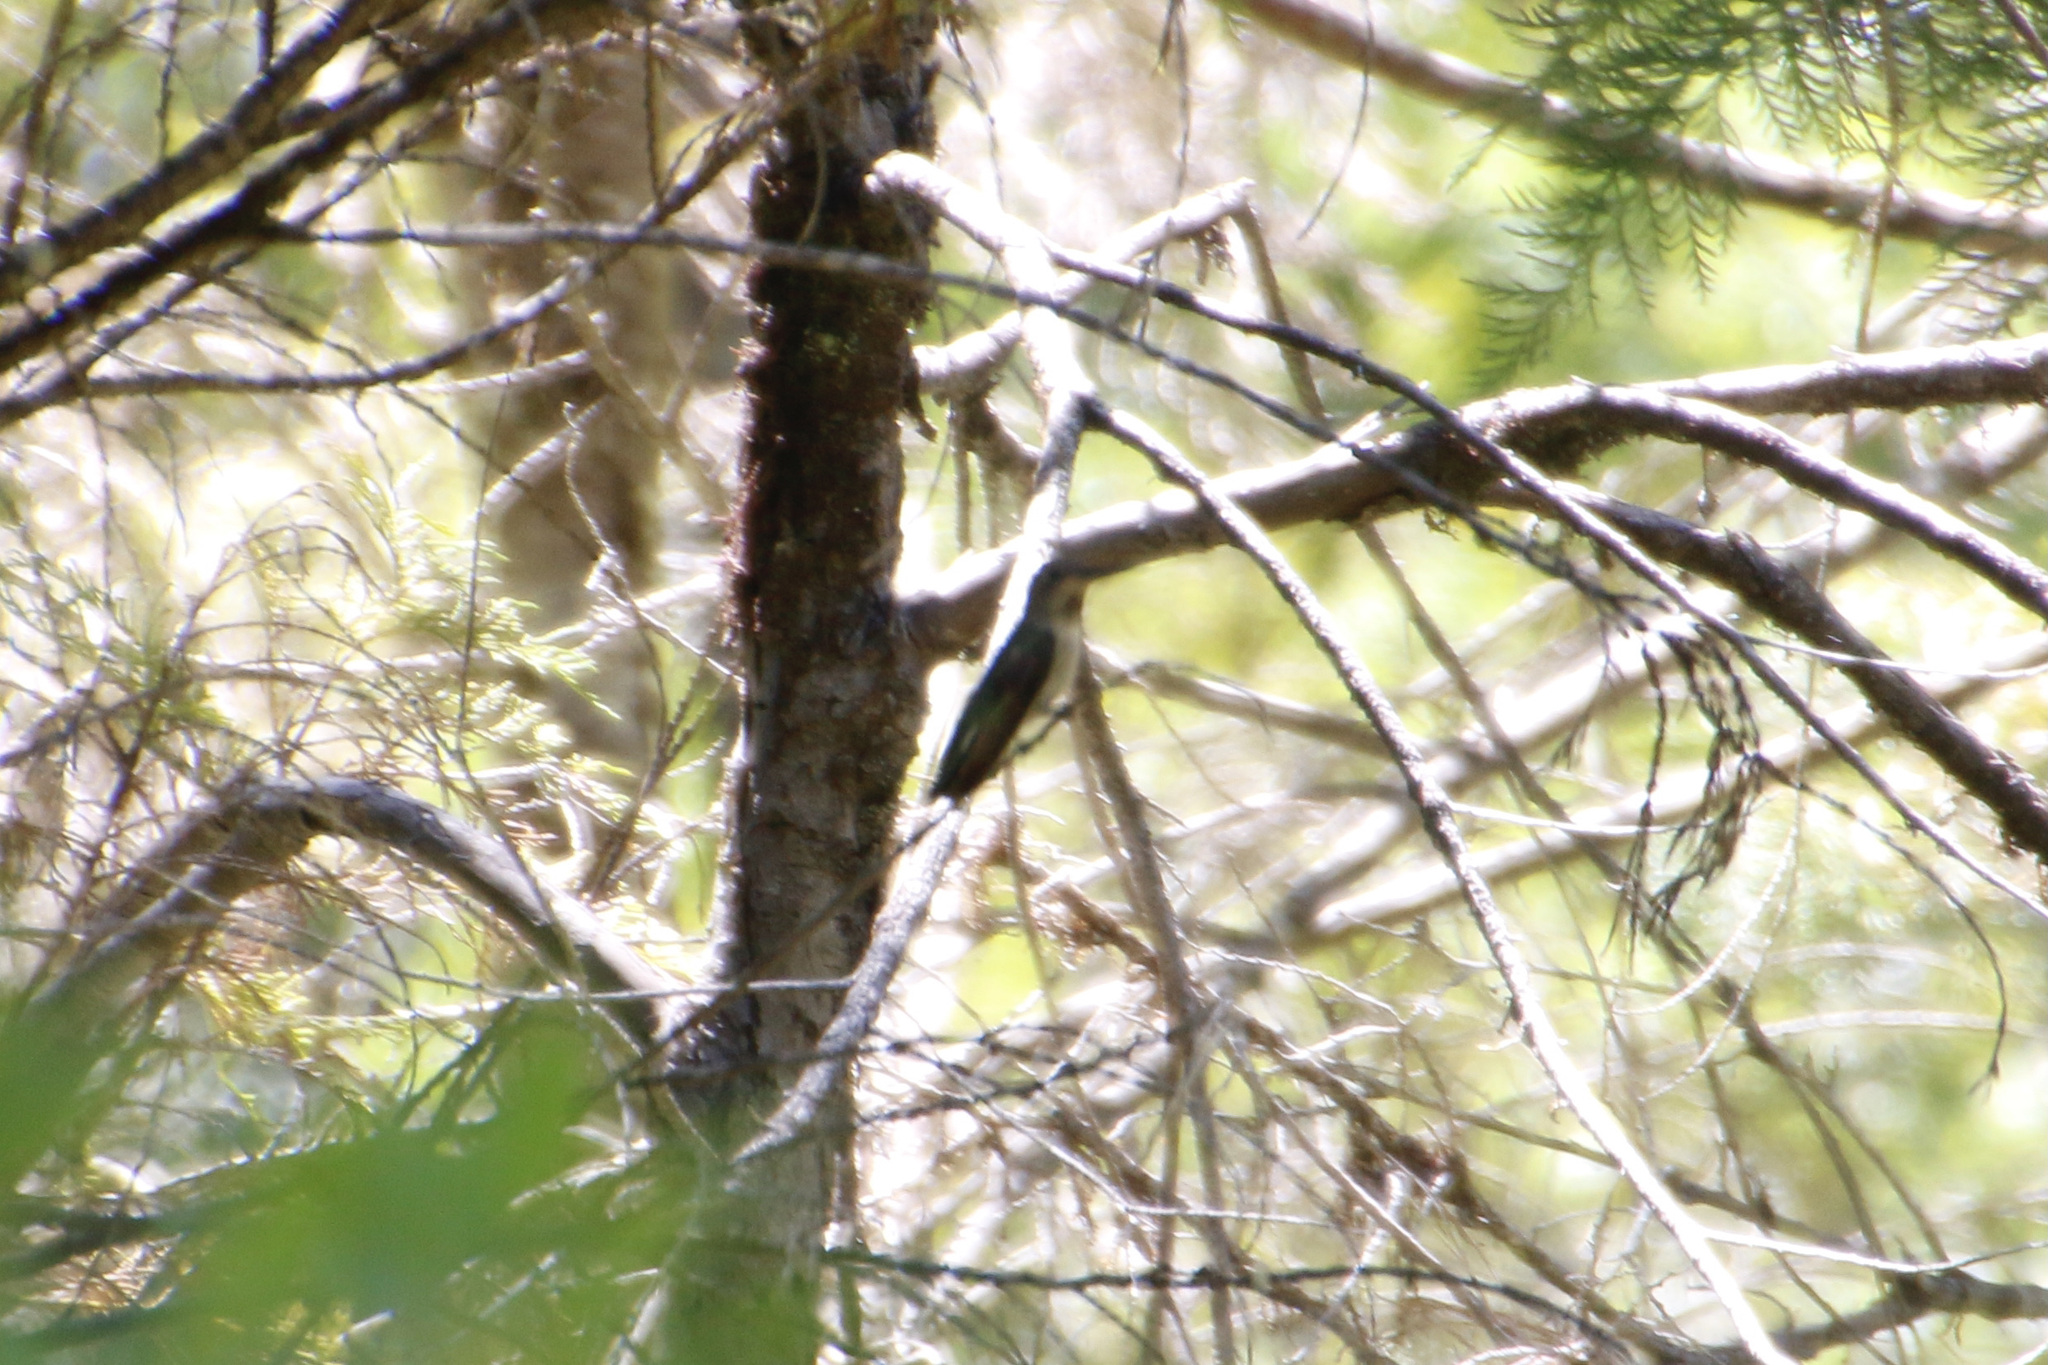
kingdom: Animalia
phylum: Chordata
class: Aves
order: Apodiformes
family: Trochilidae
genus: Calypte
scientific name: Calypte anna
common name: Anna's hummingbird
